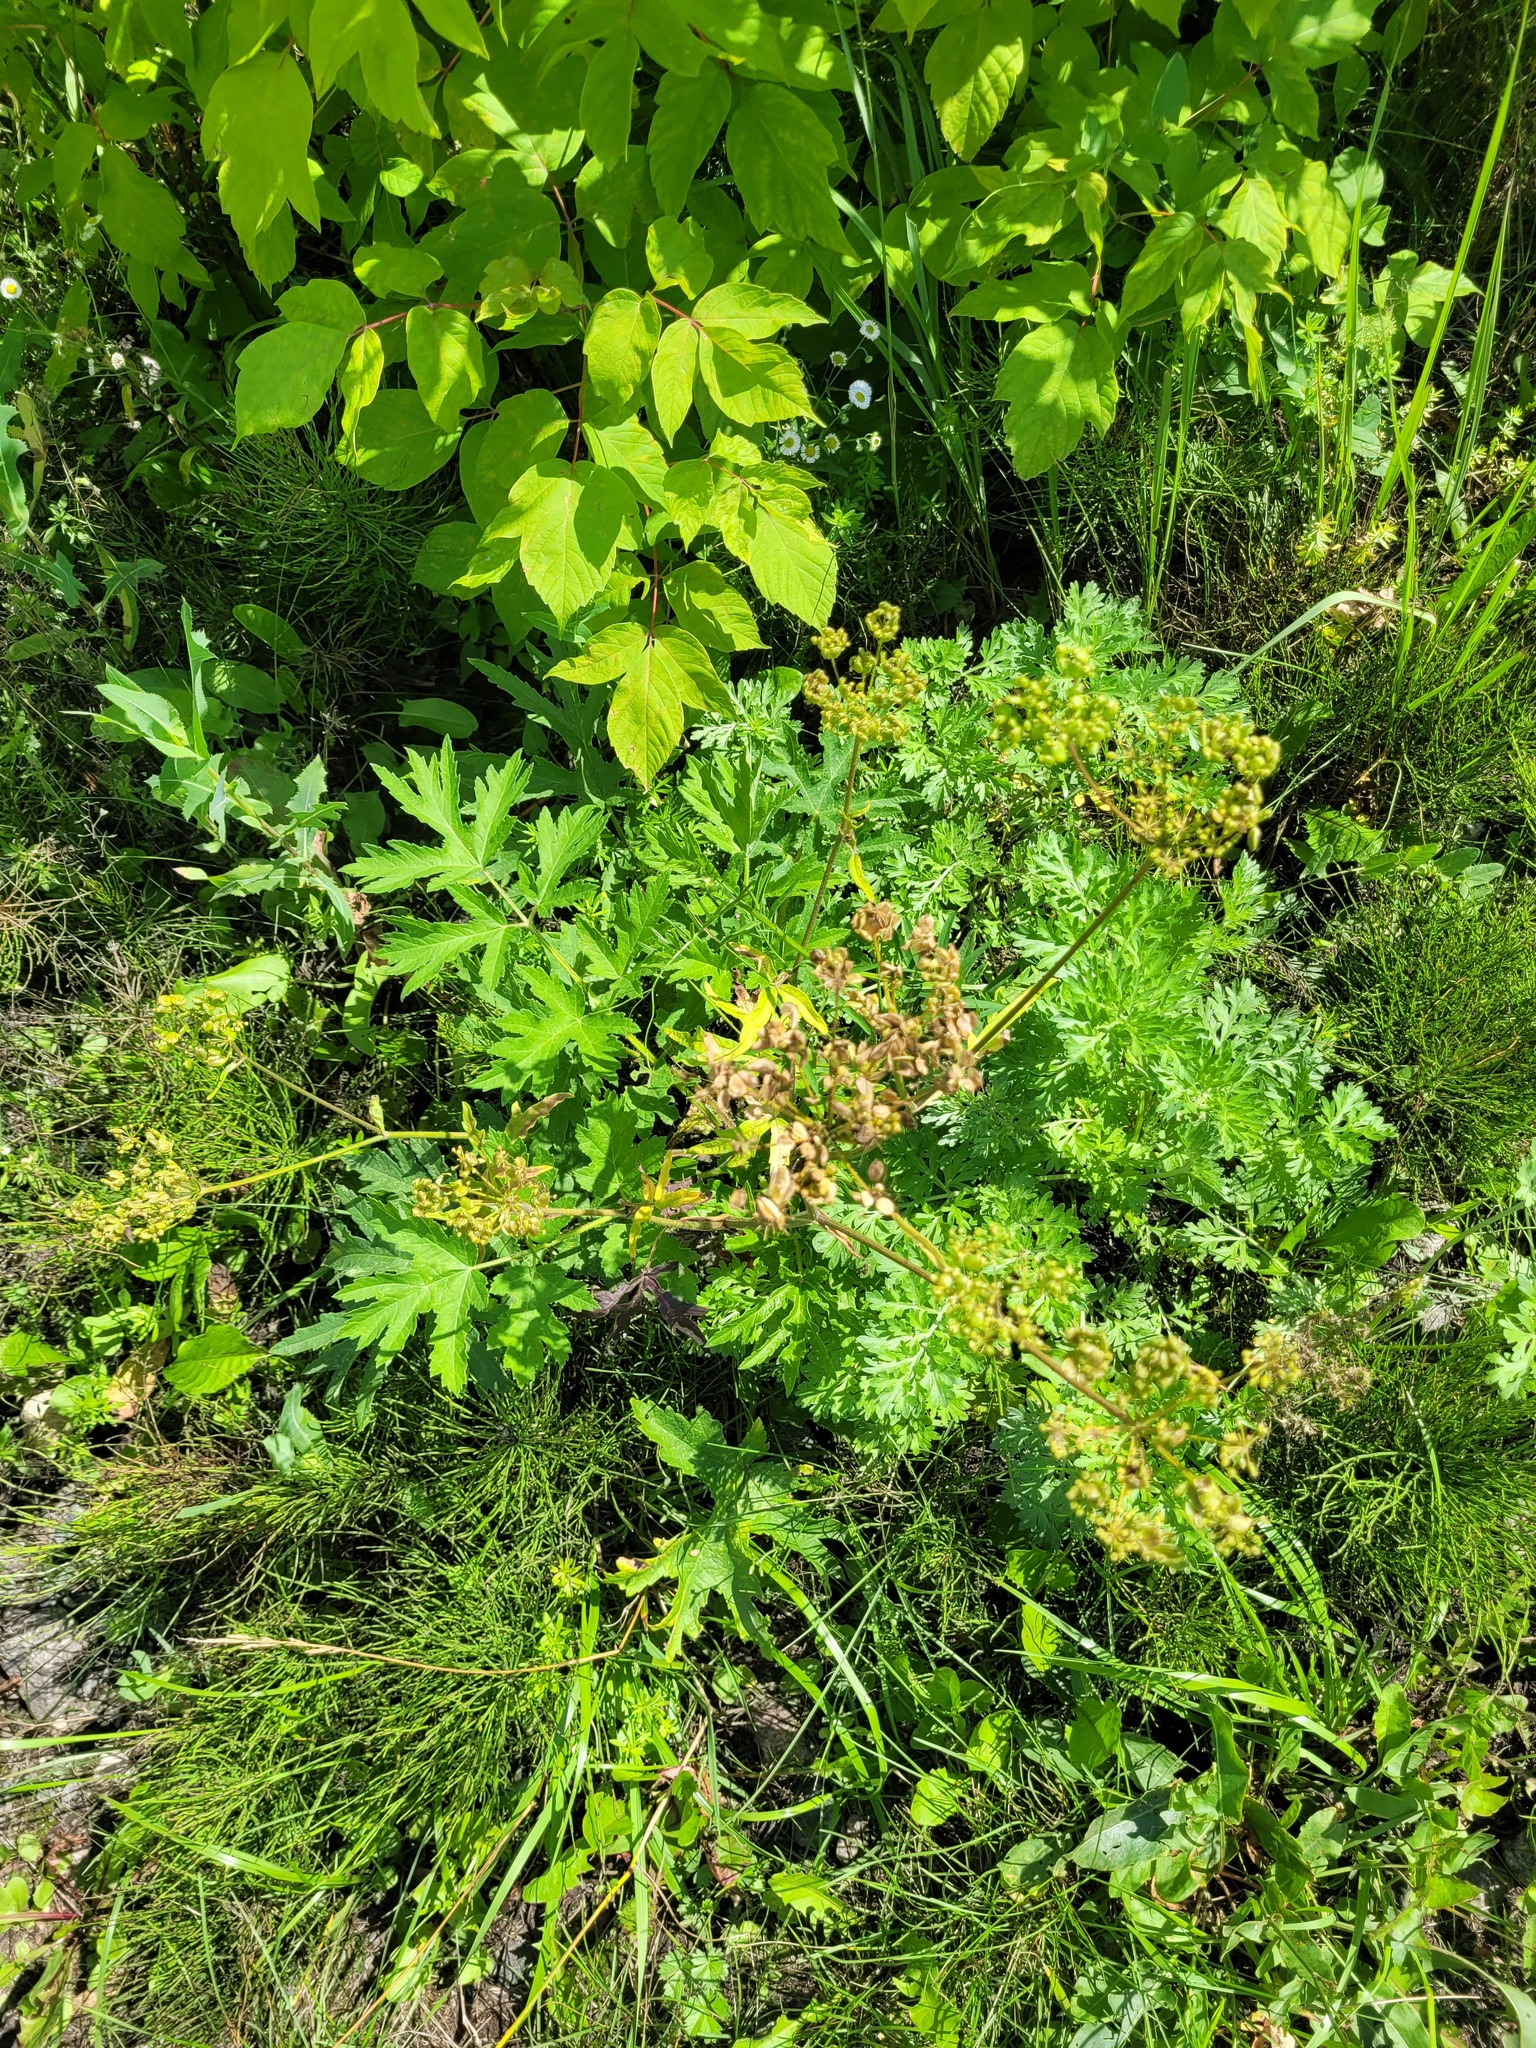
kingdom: Plantae
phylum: Tracheophyta
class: Magnoliopsida
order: Apiales
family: Apiaceae
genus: Heracleum
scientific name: Heracleum sphondylium
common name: Hogweed
